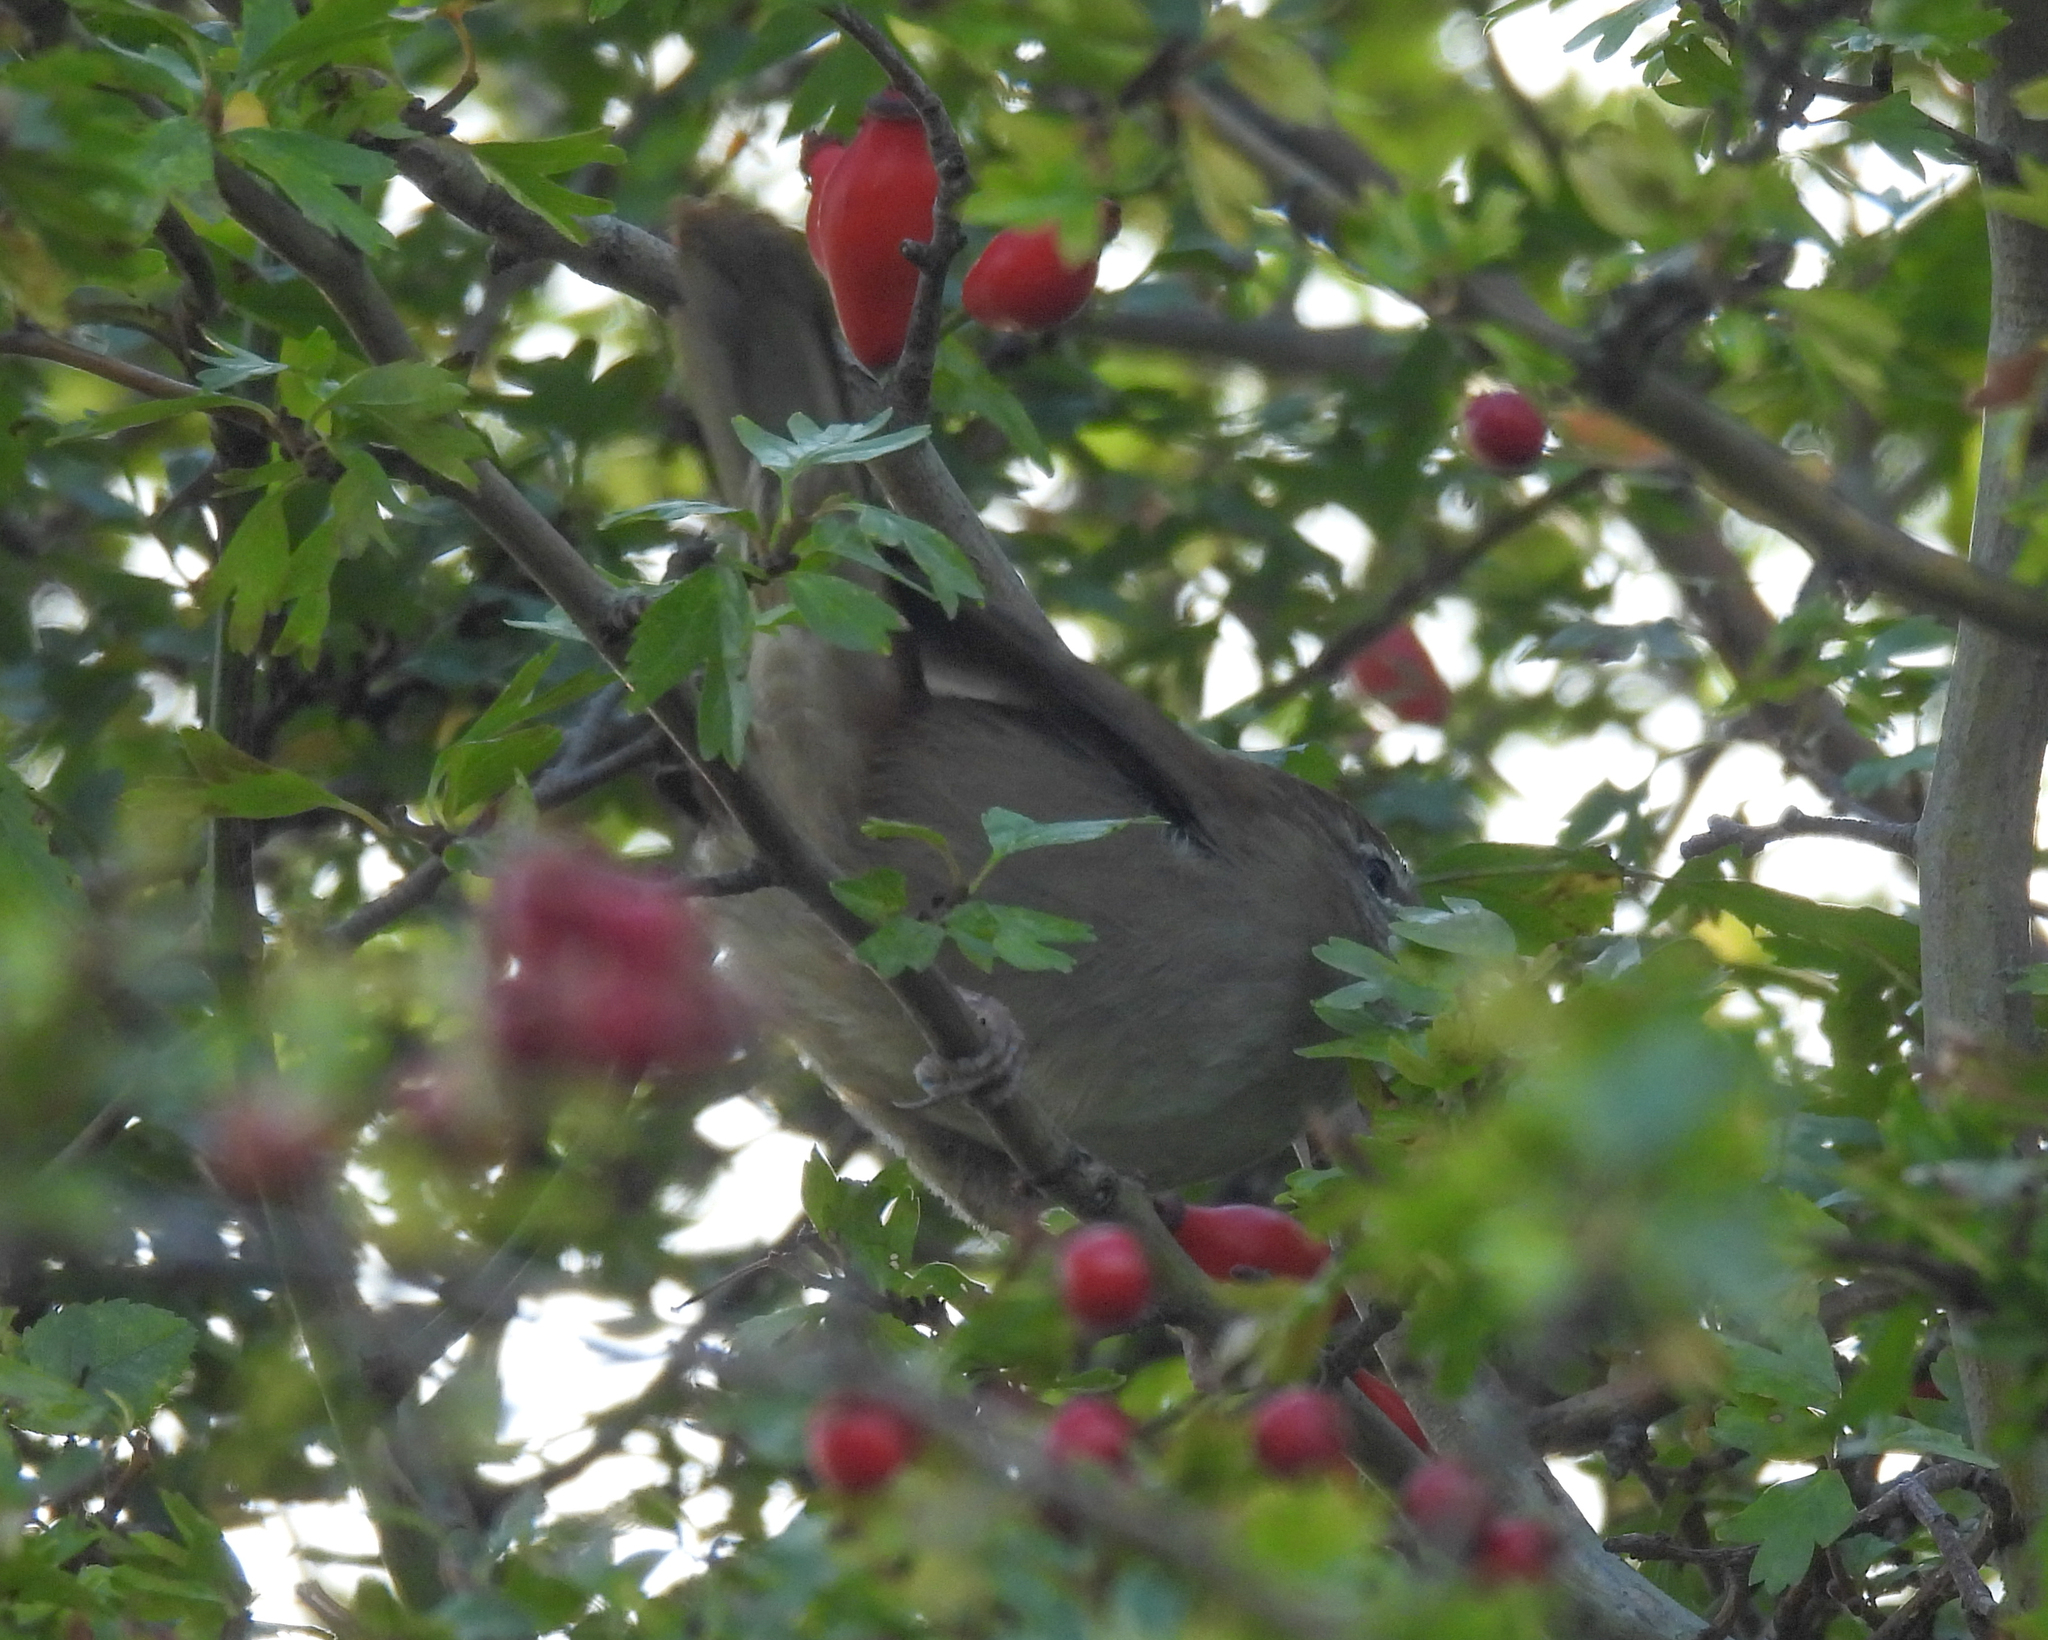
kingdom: Animalia
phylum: Chordata
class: Aves
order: Passeriformes
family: Cettiidae
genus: Cettia
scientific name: Cettia cetti
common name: Cetti's warbler
